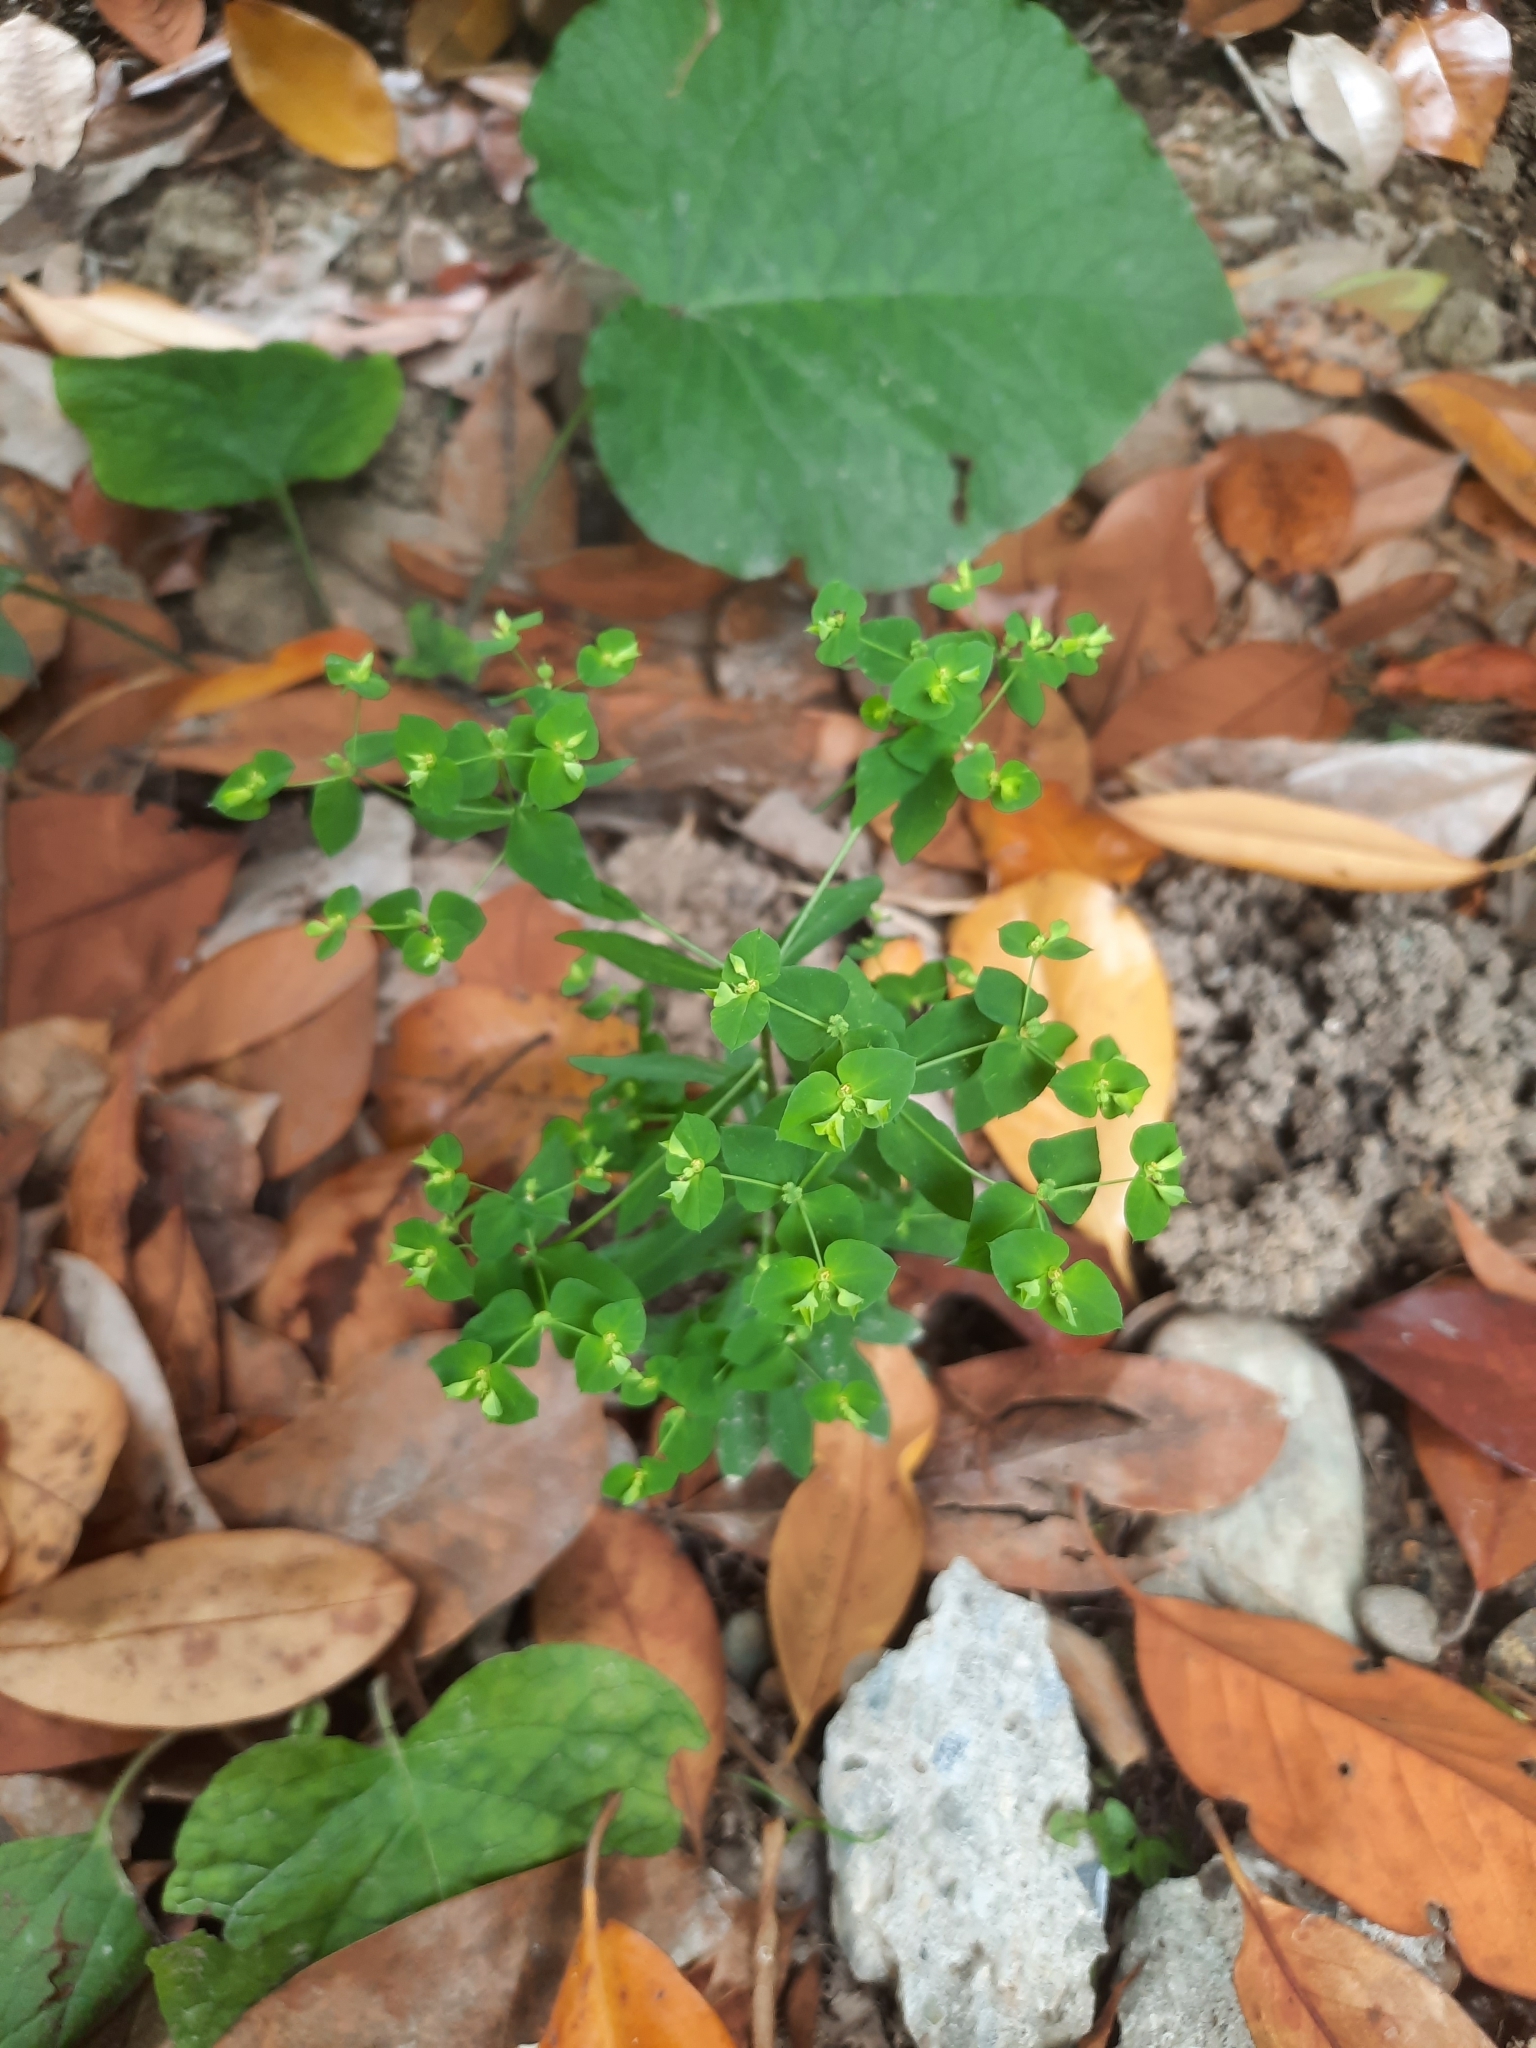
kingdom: Plantae
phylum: Tracheophyta
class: Magnoliopsida
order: Malpighiales
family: Euphorbiaceae
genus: Euphorbia
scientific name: Euphorbia peplus
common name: Petty spurge
